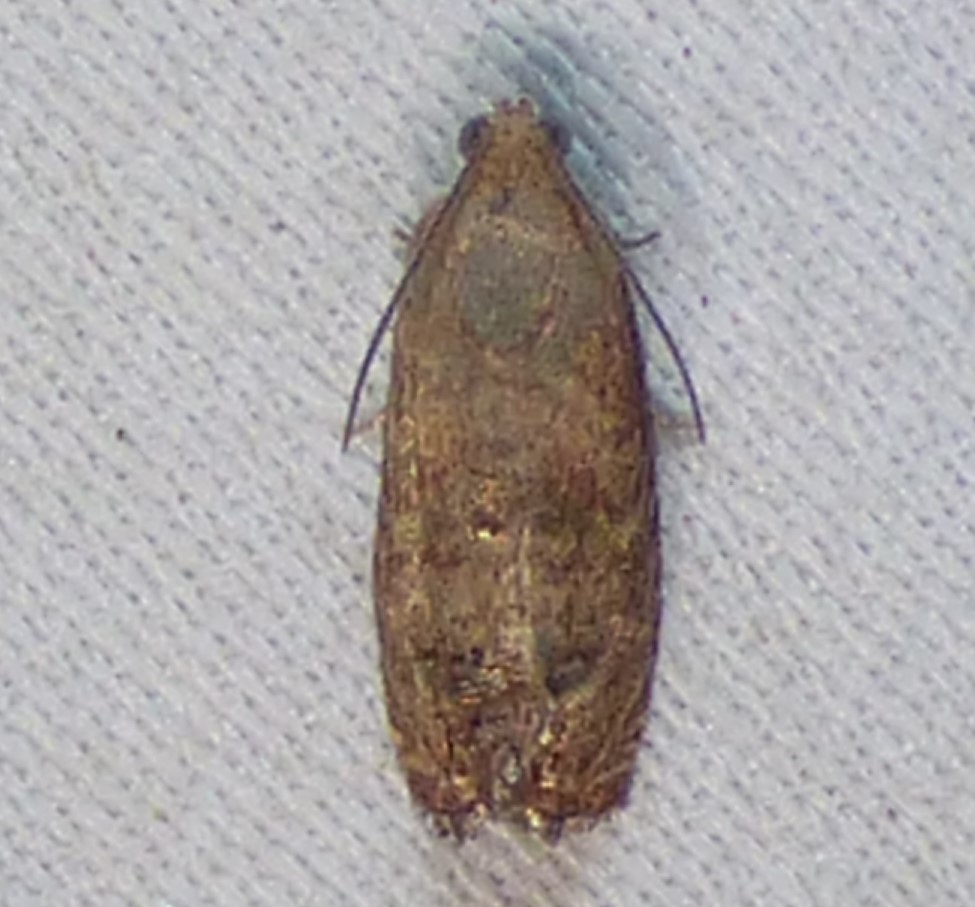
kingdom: Animalia
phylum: Arthropoda
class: Insecta
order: Lepidoptera
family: Tortricidae
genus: Cydia
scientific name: Cydia latiferreana
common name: Filbertworm moth
